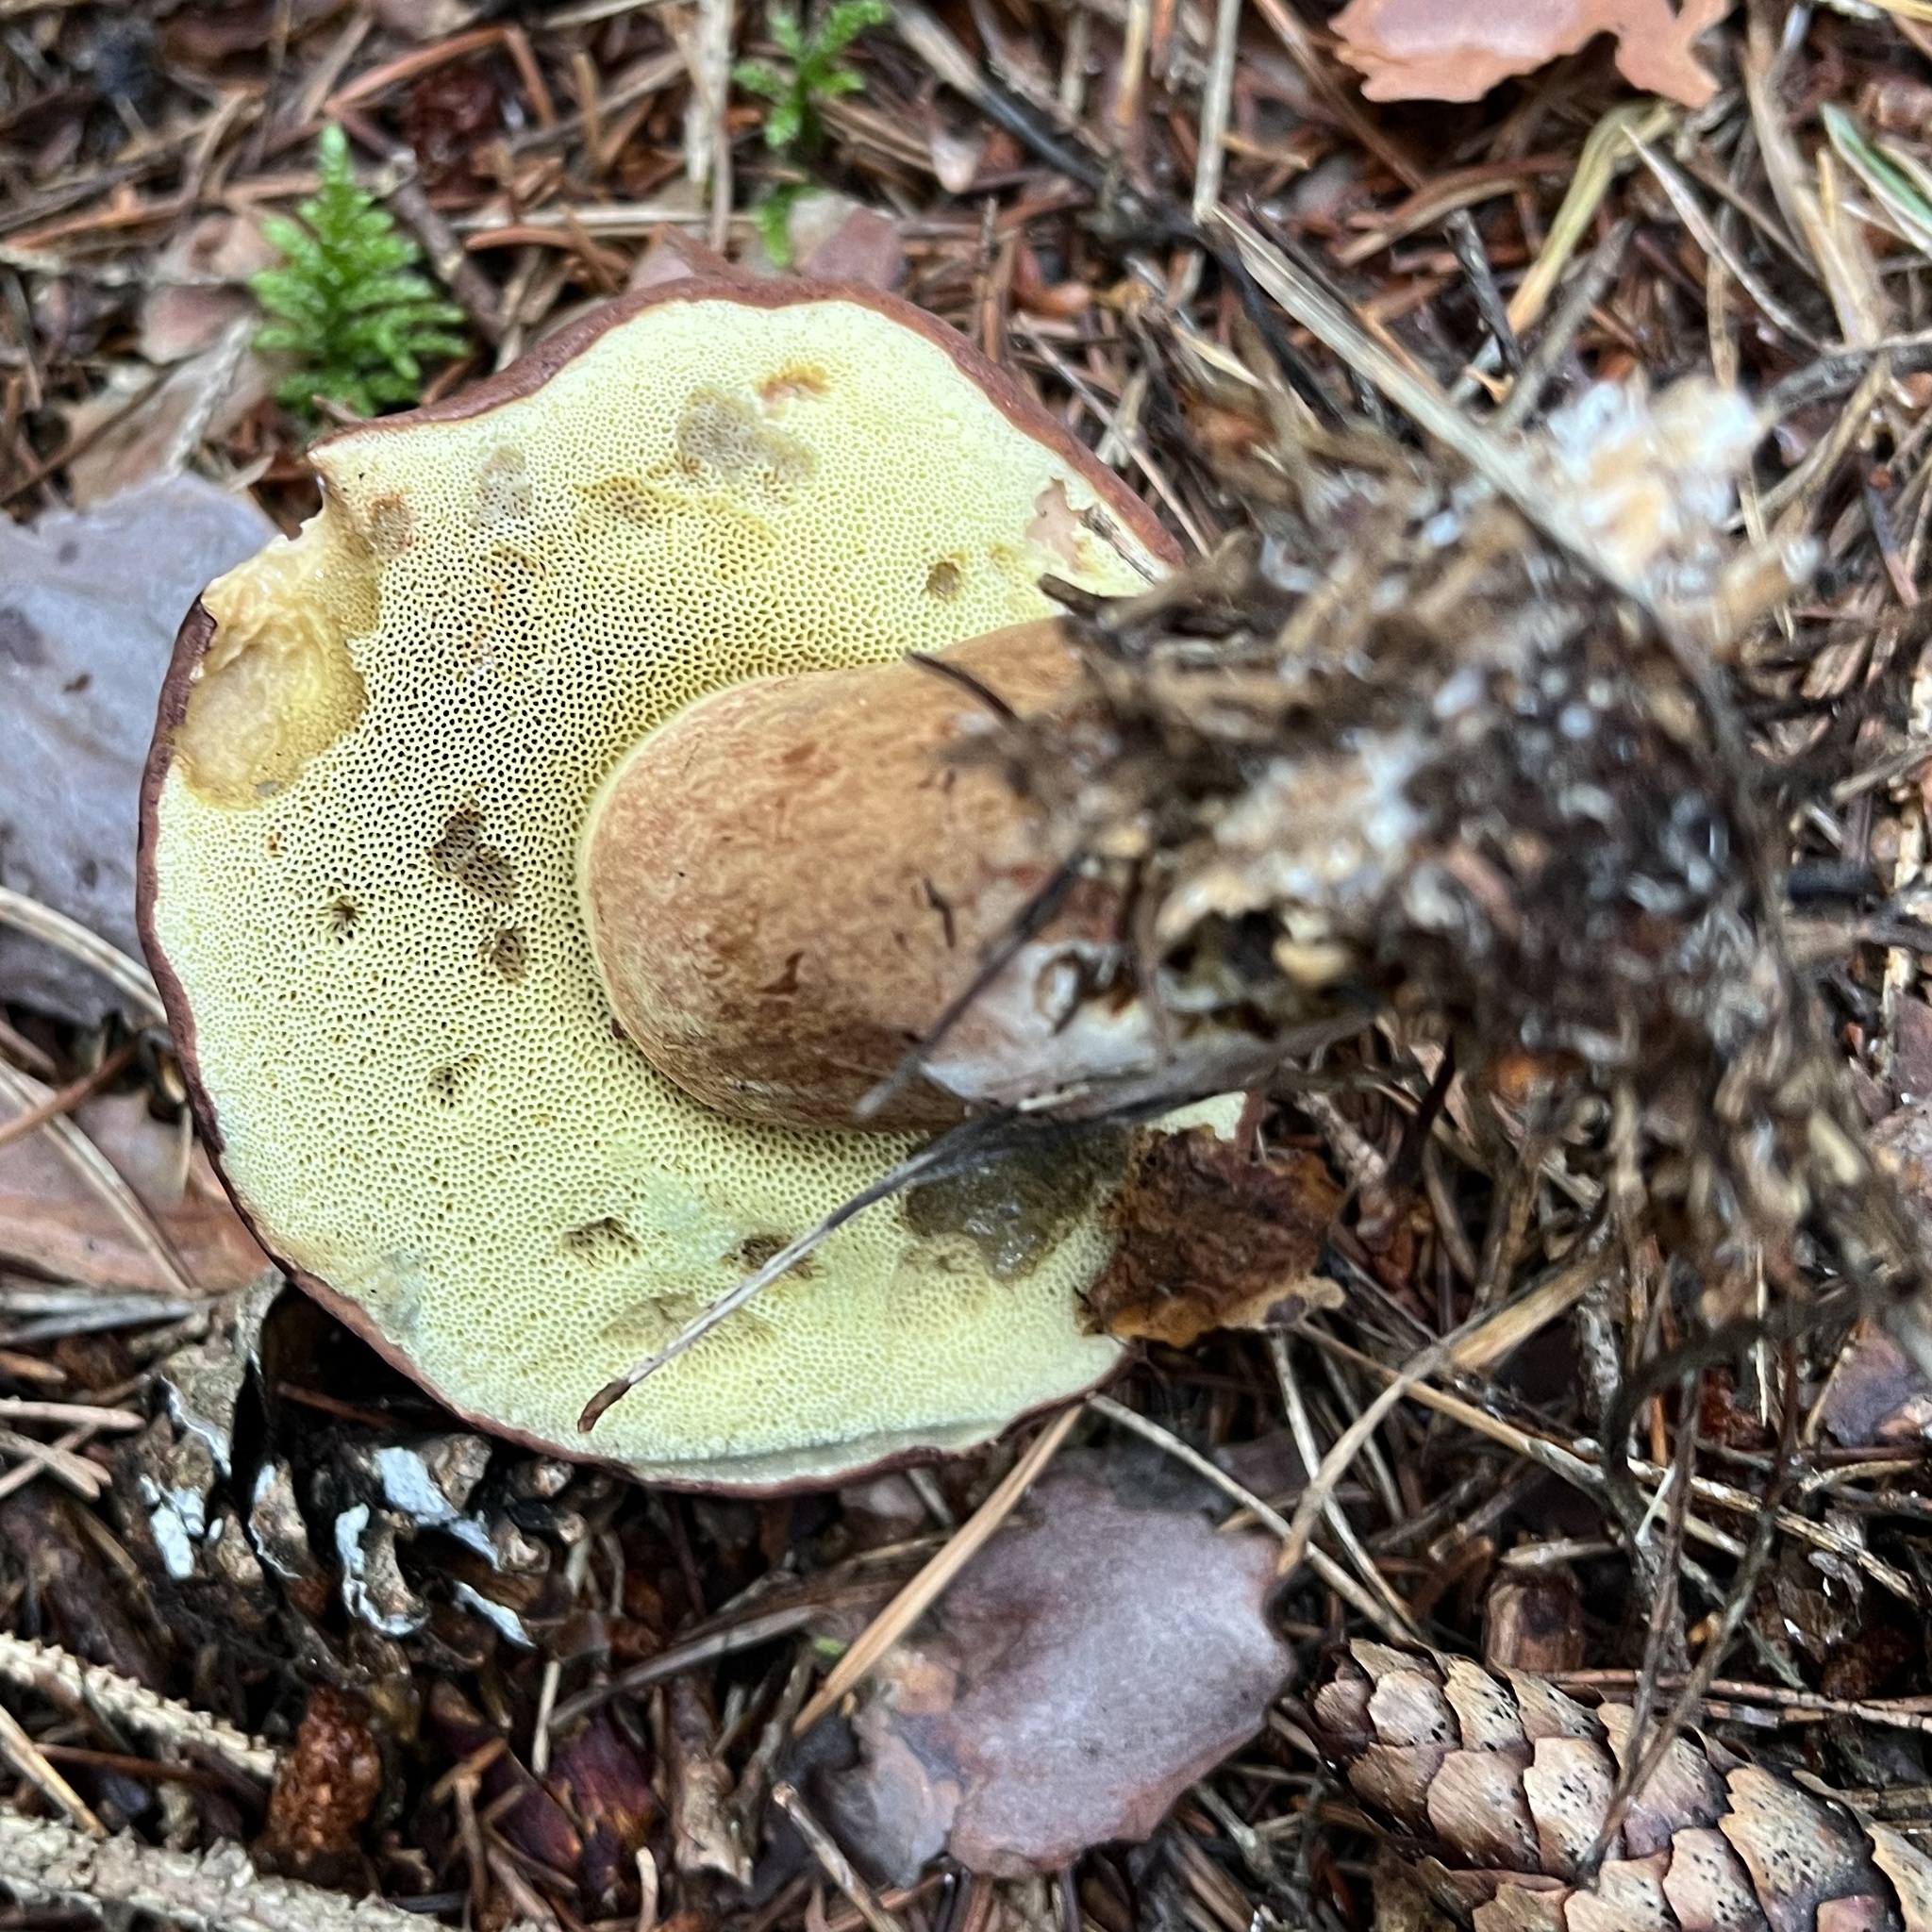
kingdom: Fungi
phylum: Basidiomycota
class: Agaricomycetes
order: Boletales
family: Boletaceae
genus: Imleria
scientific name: Imleria badia
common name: Bay bolete
